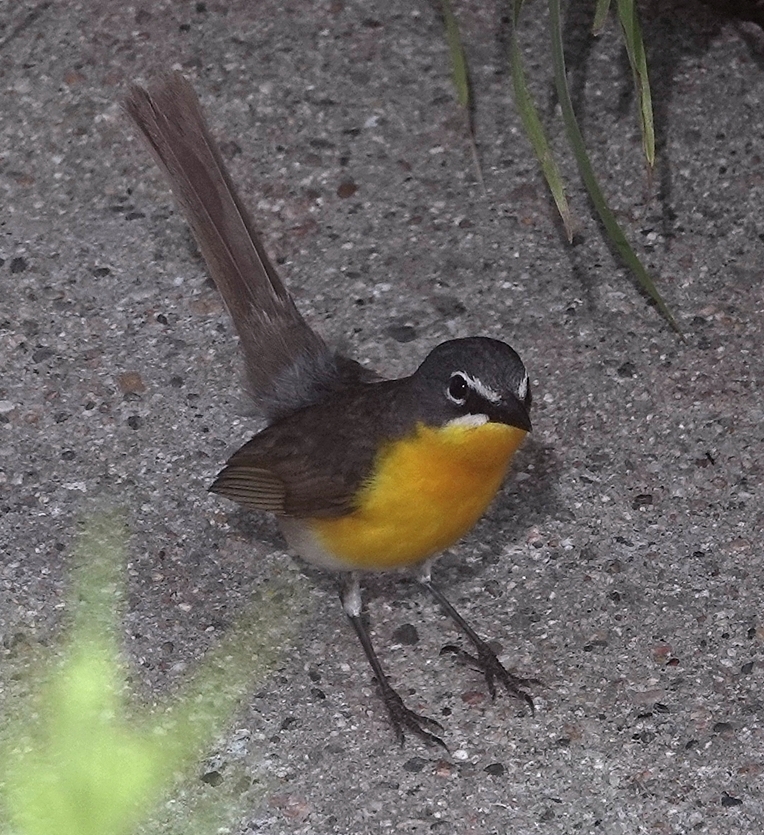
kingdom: Animalia
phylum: Chordata
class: Aves
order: Passeriformes
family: Parulidae
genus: Icteria
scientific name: Icteria virens
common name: Yellow-breasted chat
